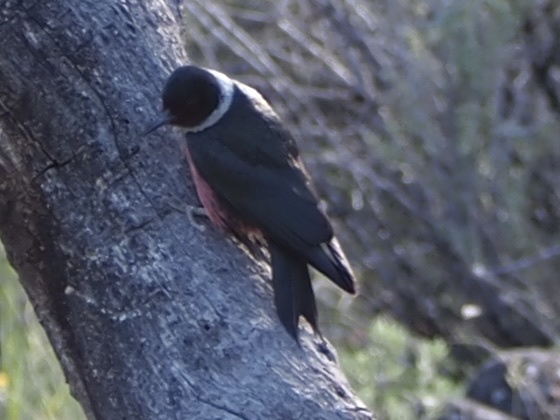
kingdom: Animalia
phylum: Chordata
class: Aves
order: Piciformes
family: Picidae
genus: Melanerpes
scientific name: Melanerpes lewis
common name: Lewis's woodpecker
